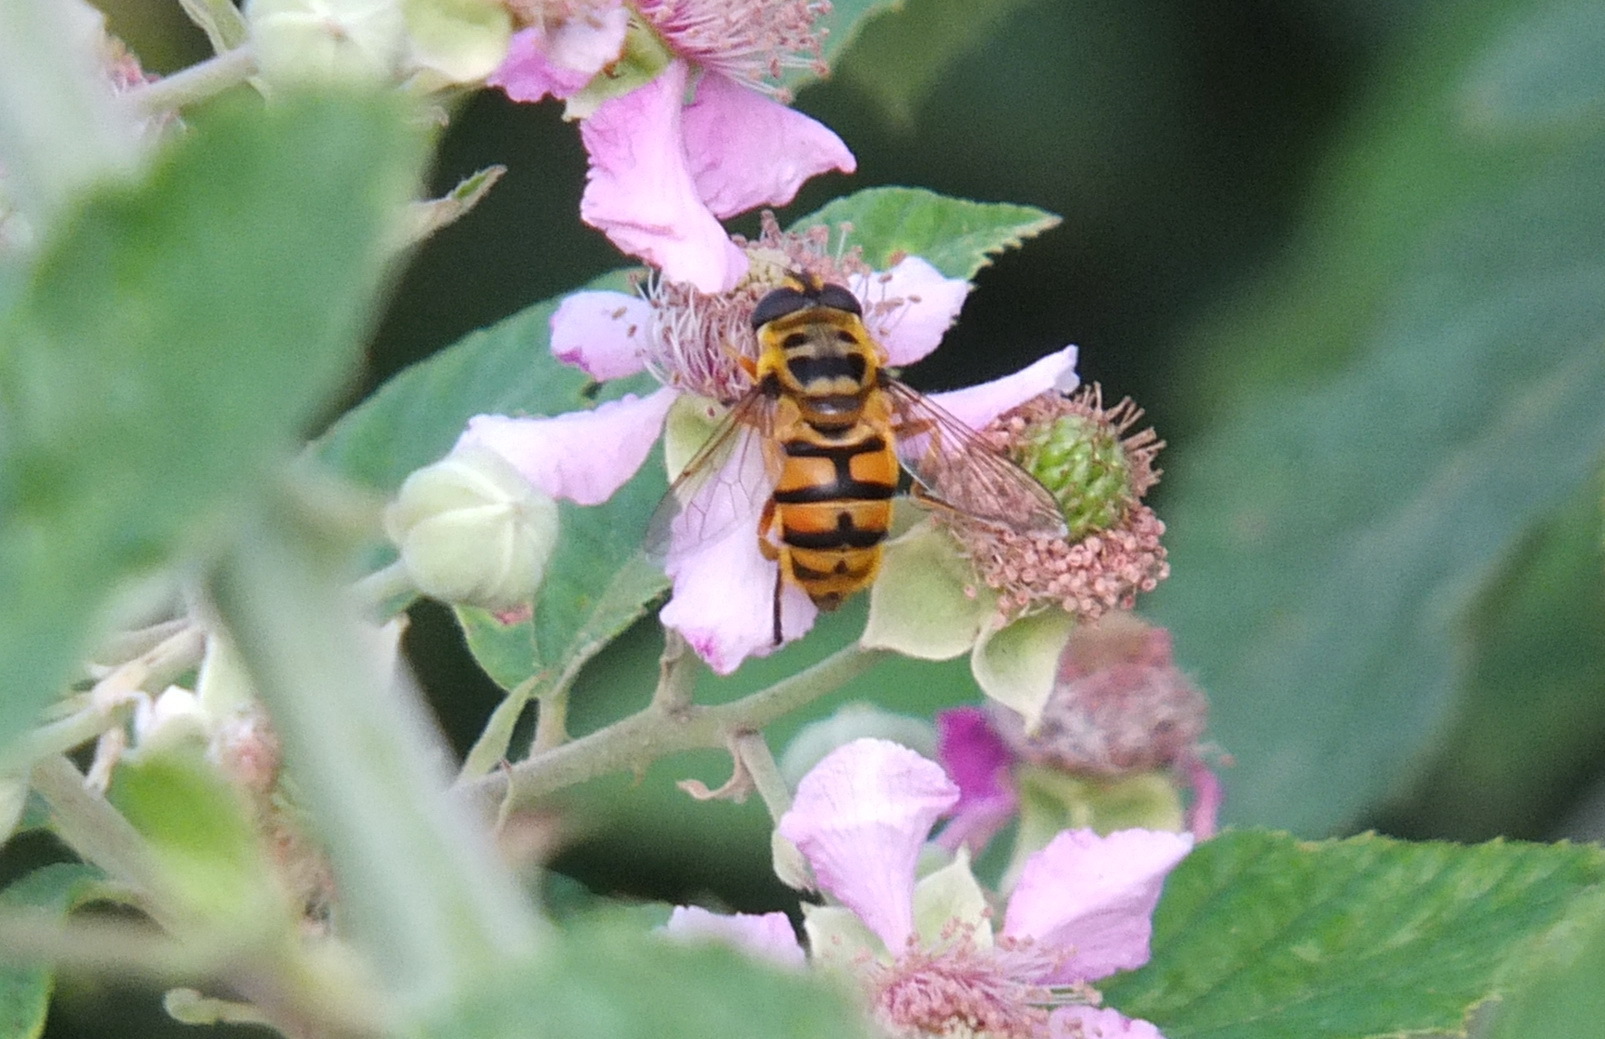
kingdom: Animalia
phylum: Arthropoda
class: Insecta
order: Diptera
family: Syrphidae
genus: Myathropa
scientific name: Myathropa florea
